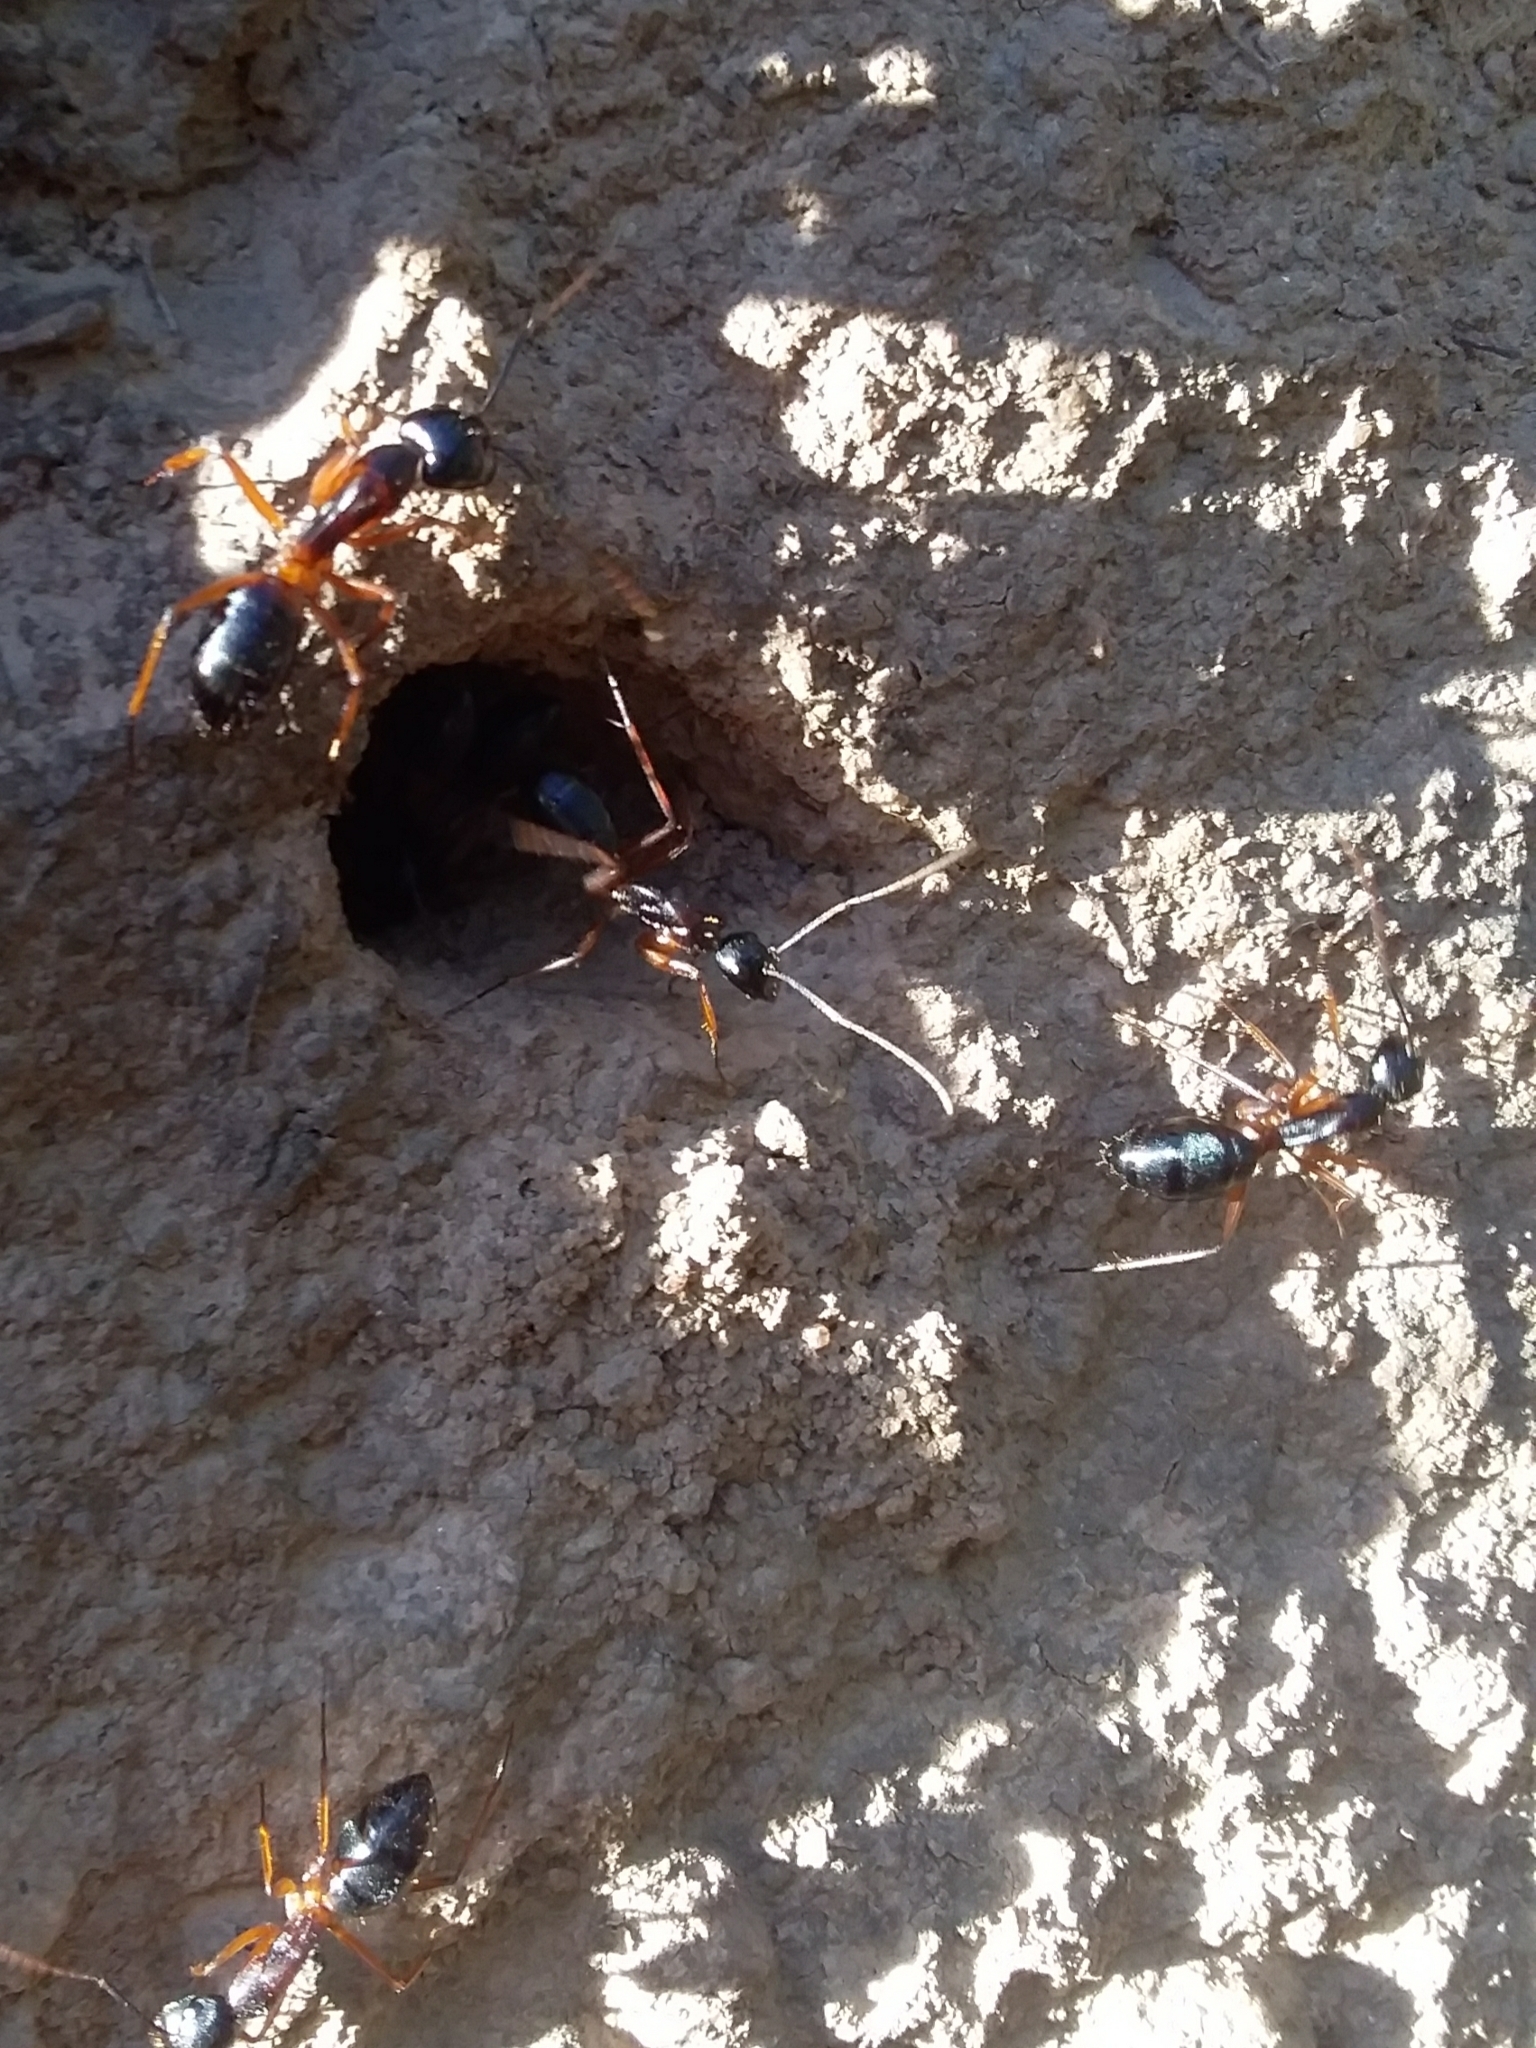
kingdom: Animalia
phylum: Arthropoda
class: Insecta
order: Hymenoptera
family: Formicidae
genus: Camponotus
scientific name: Camponotus consobrinus
